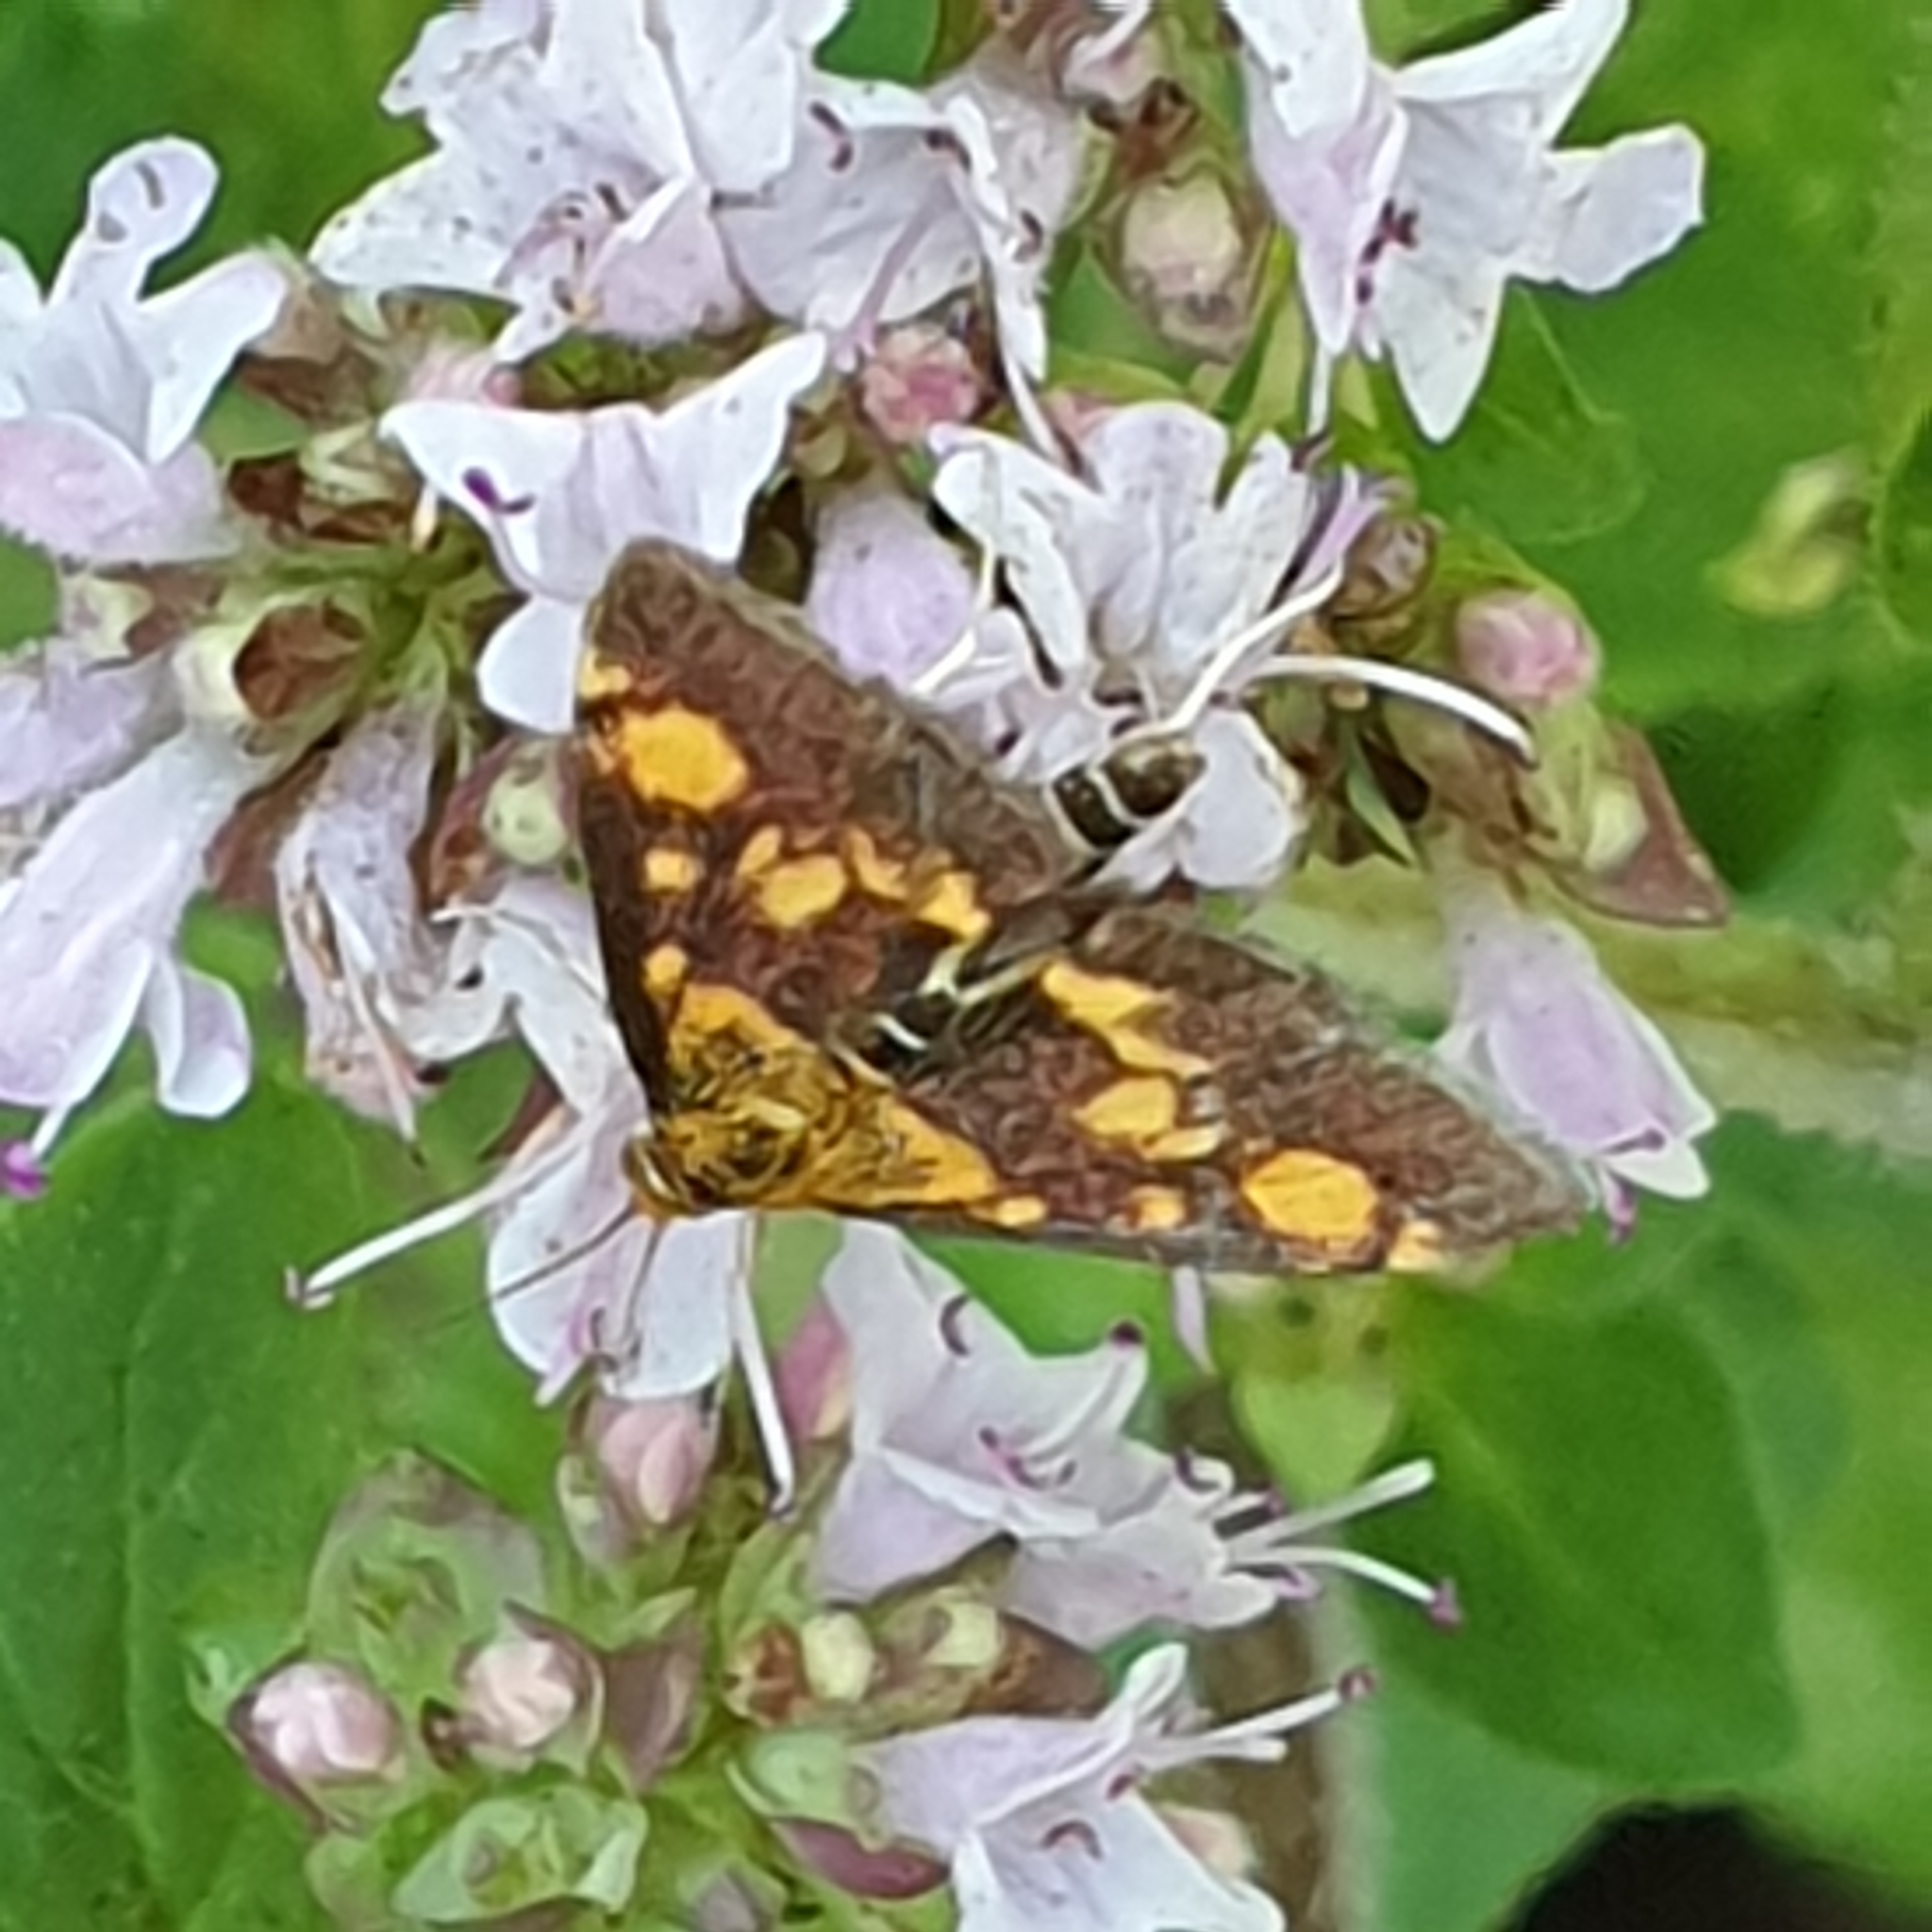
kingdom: Animalia
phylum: Arthropoda
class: Insecta
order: Lepidoptera
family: Crambidae
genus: Pyrausta
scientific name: Pyrausta aurata
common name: Small purple & gold
